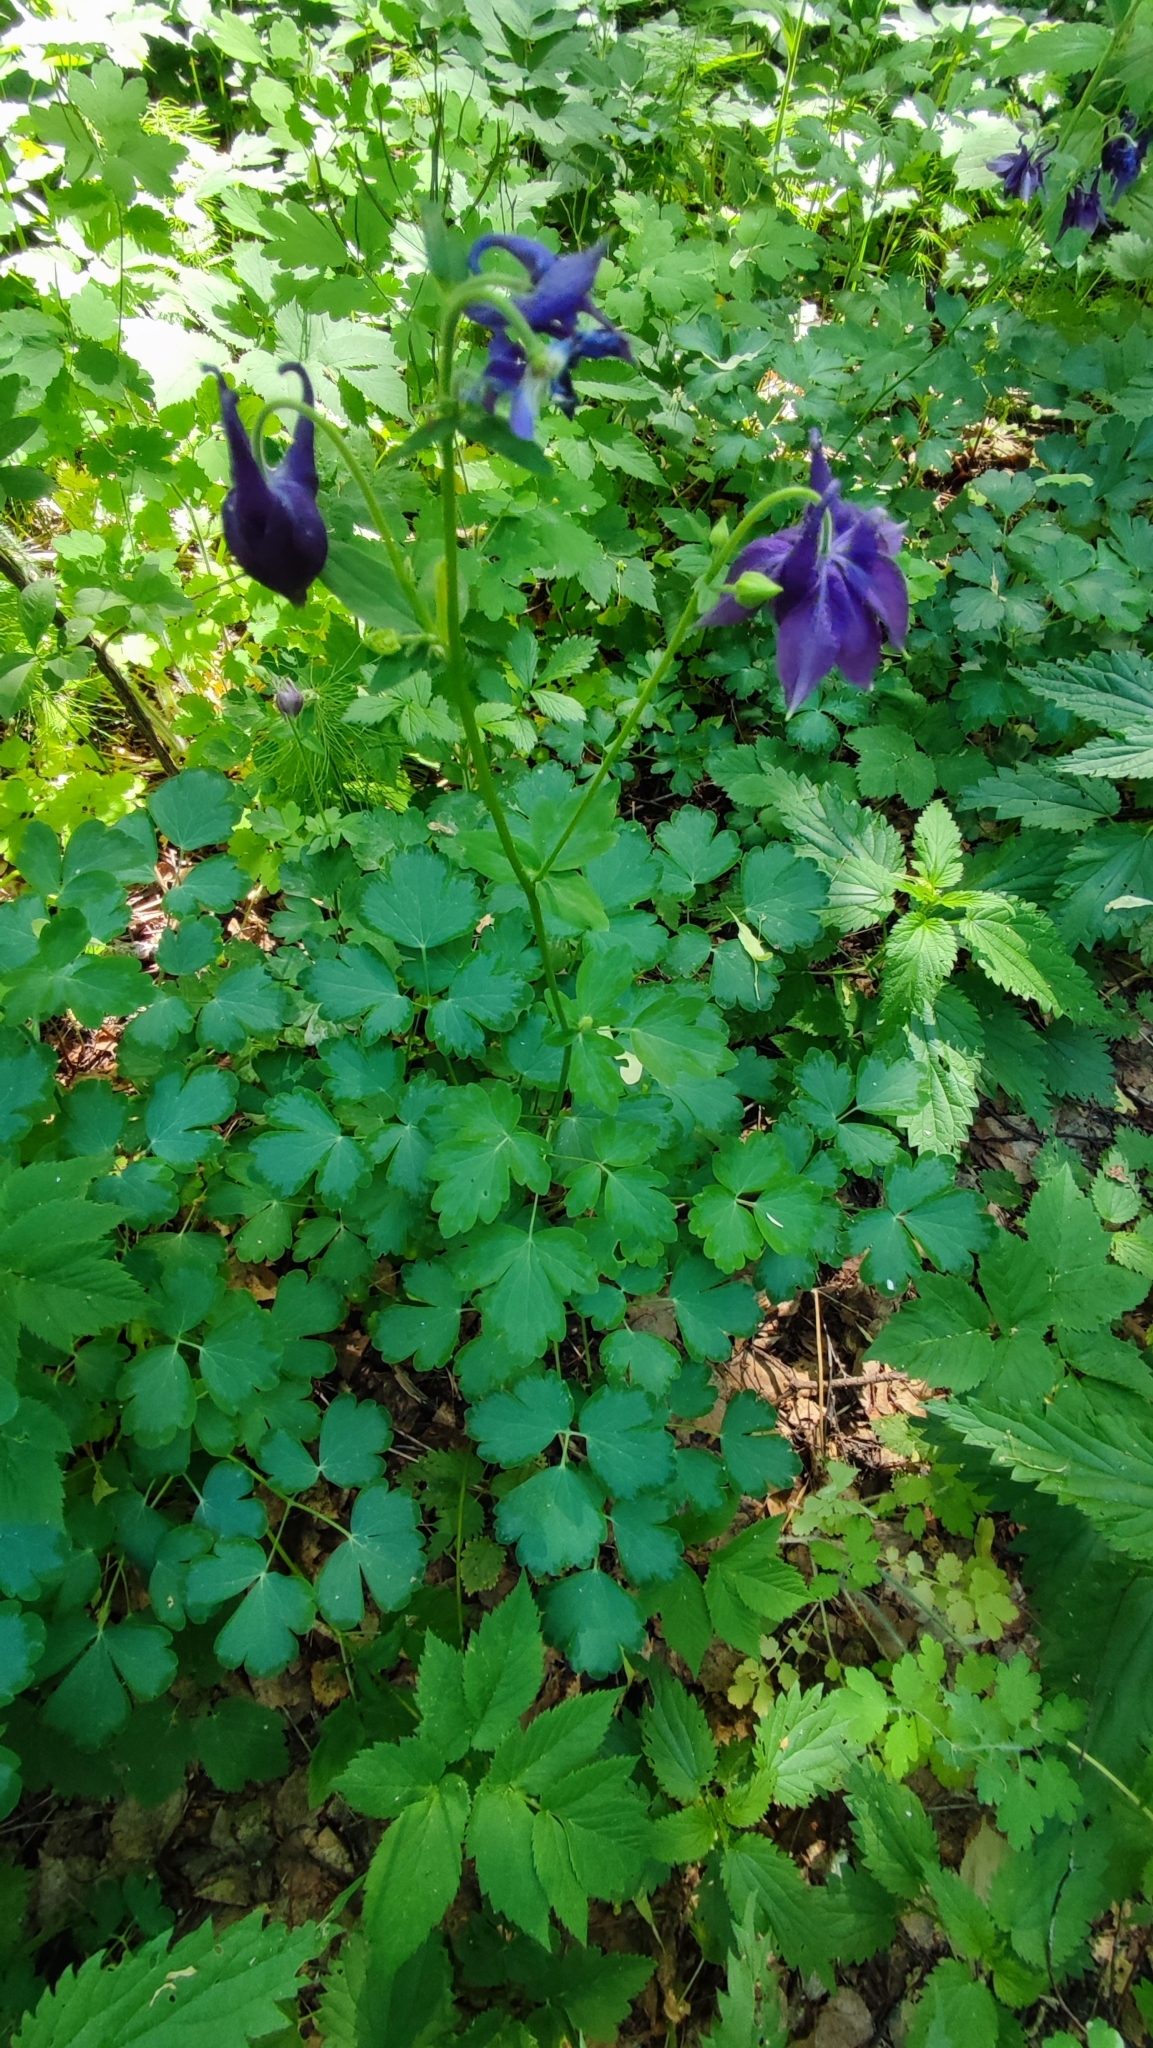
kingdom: Plantae
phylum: Tracheophyta
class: Magnoliopsida
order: Ranunculales
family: Ranunculaceae
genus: Aquilegia
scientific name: Aquilegia vulgaris
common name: Columbine
